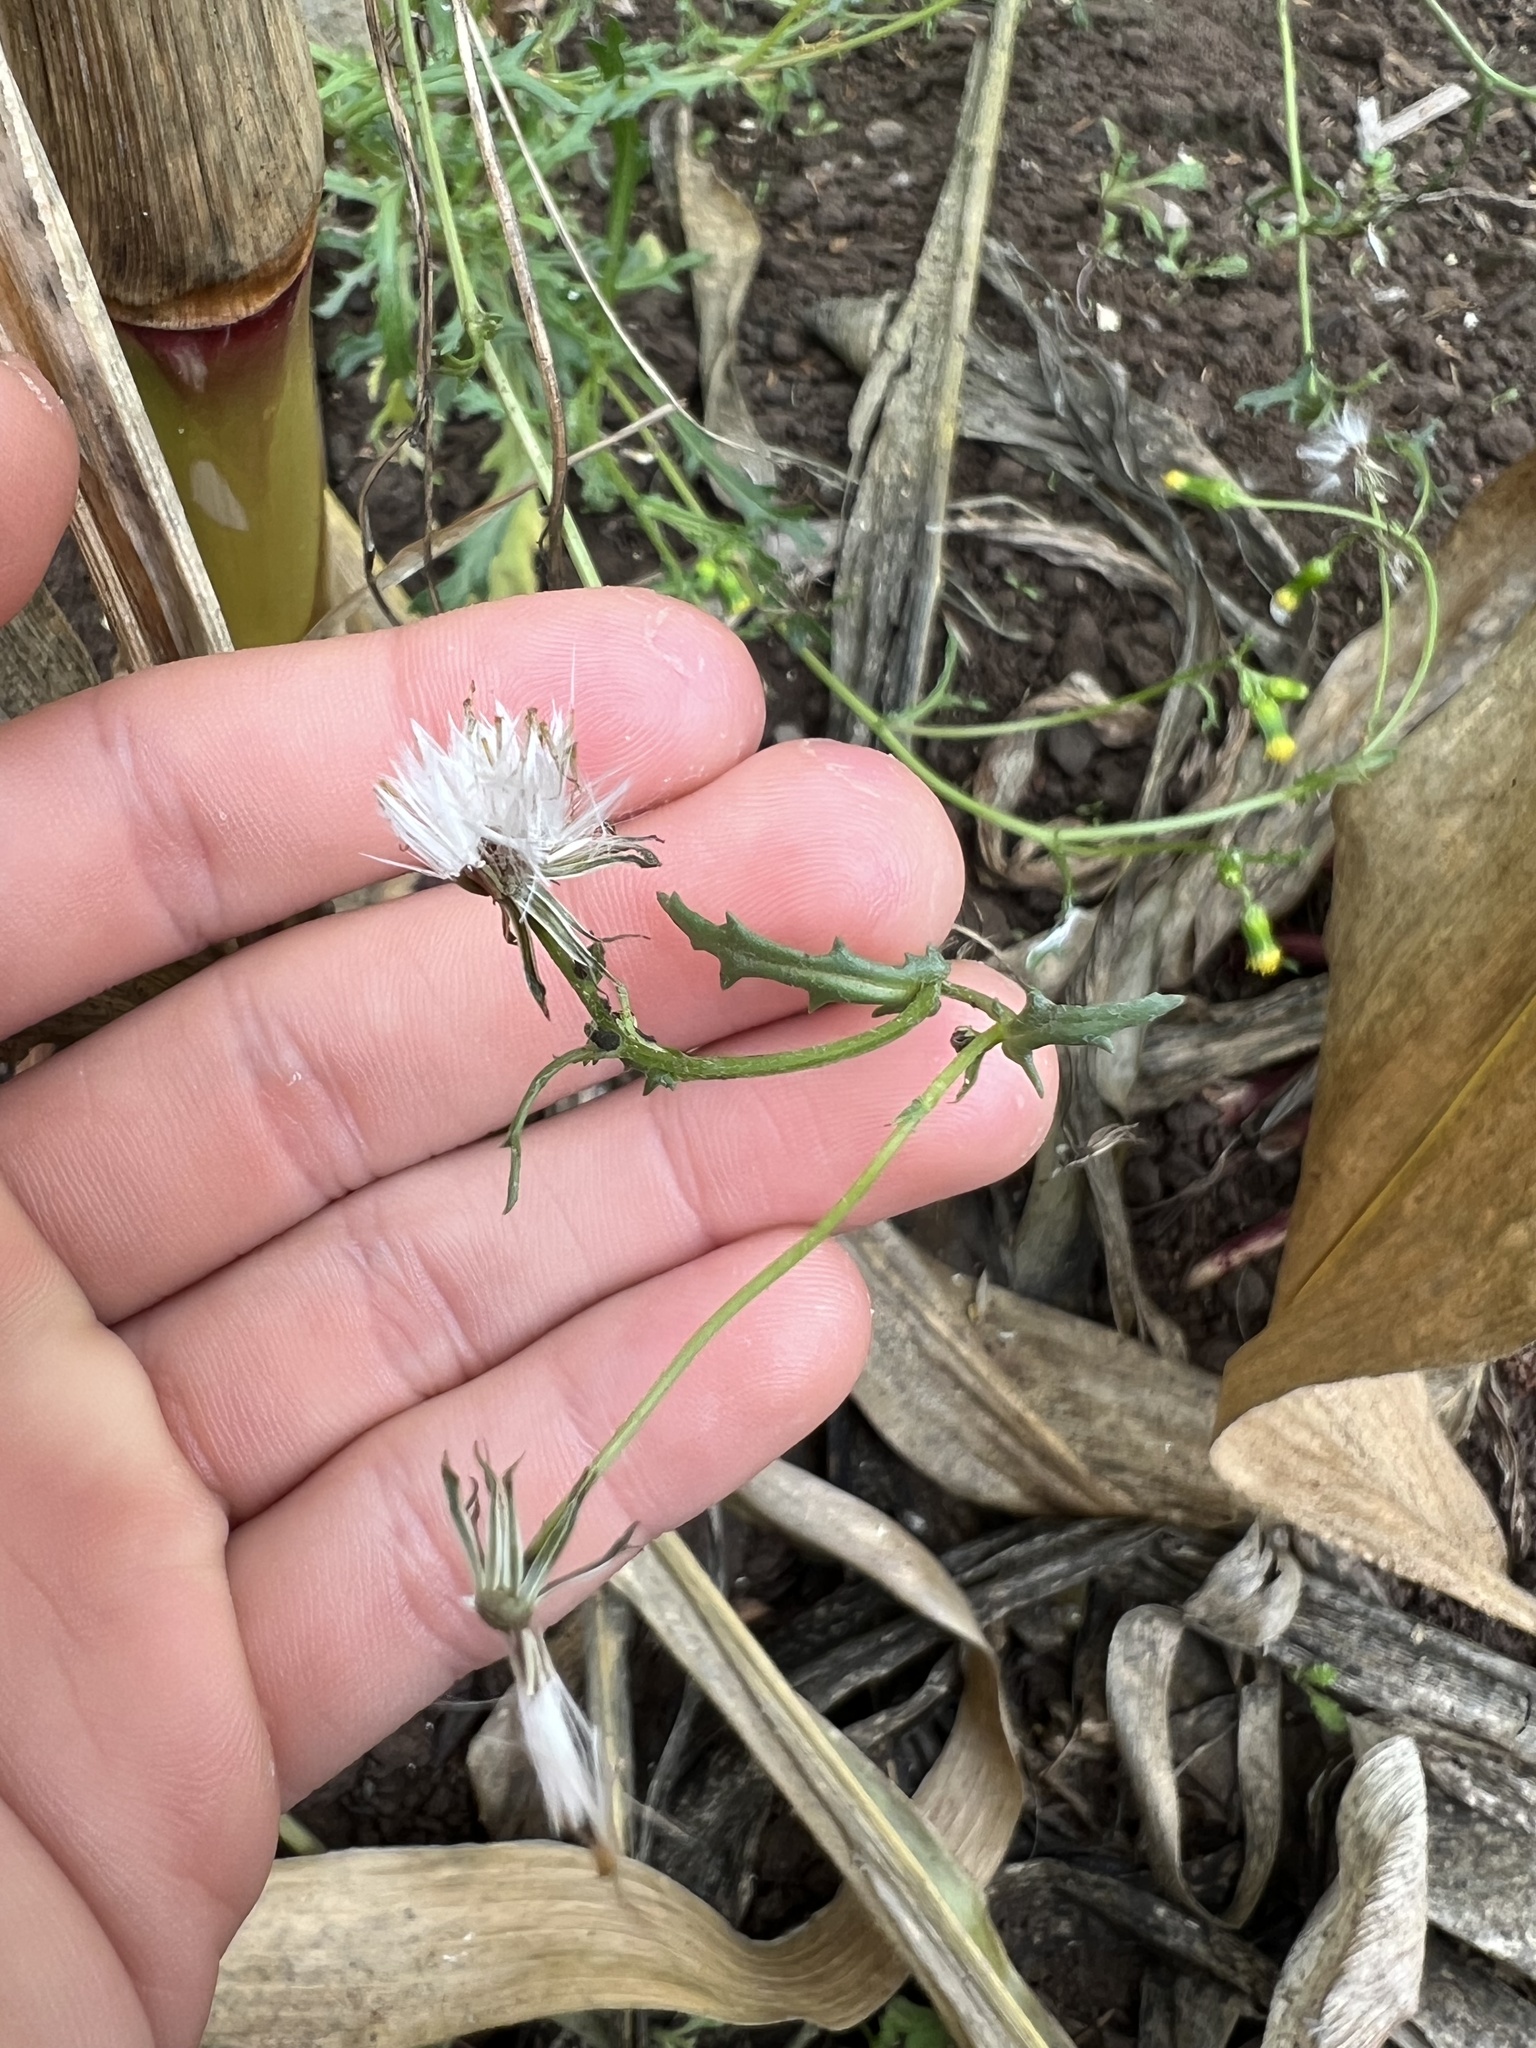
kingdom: Plantae
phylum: Tracheophyta
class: Magnoliopsida
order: Asterales
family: Asteraceae
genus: Senecio
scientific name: Senecio vulgaris
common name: Old-man-in-the-spring
